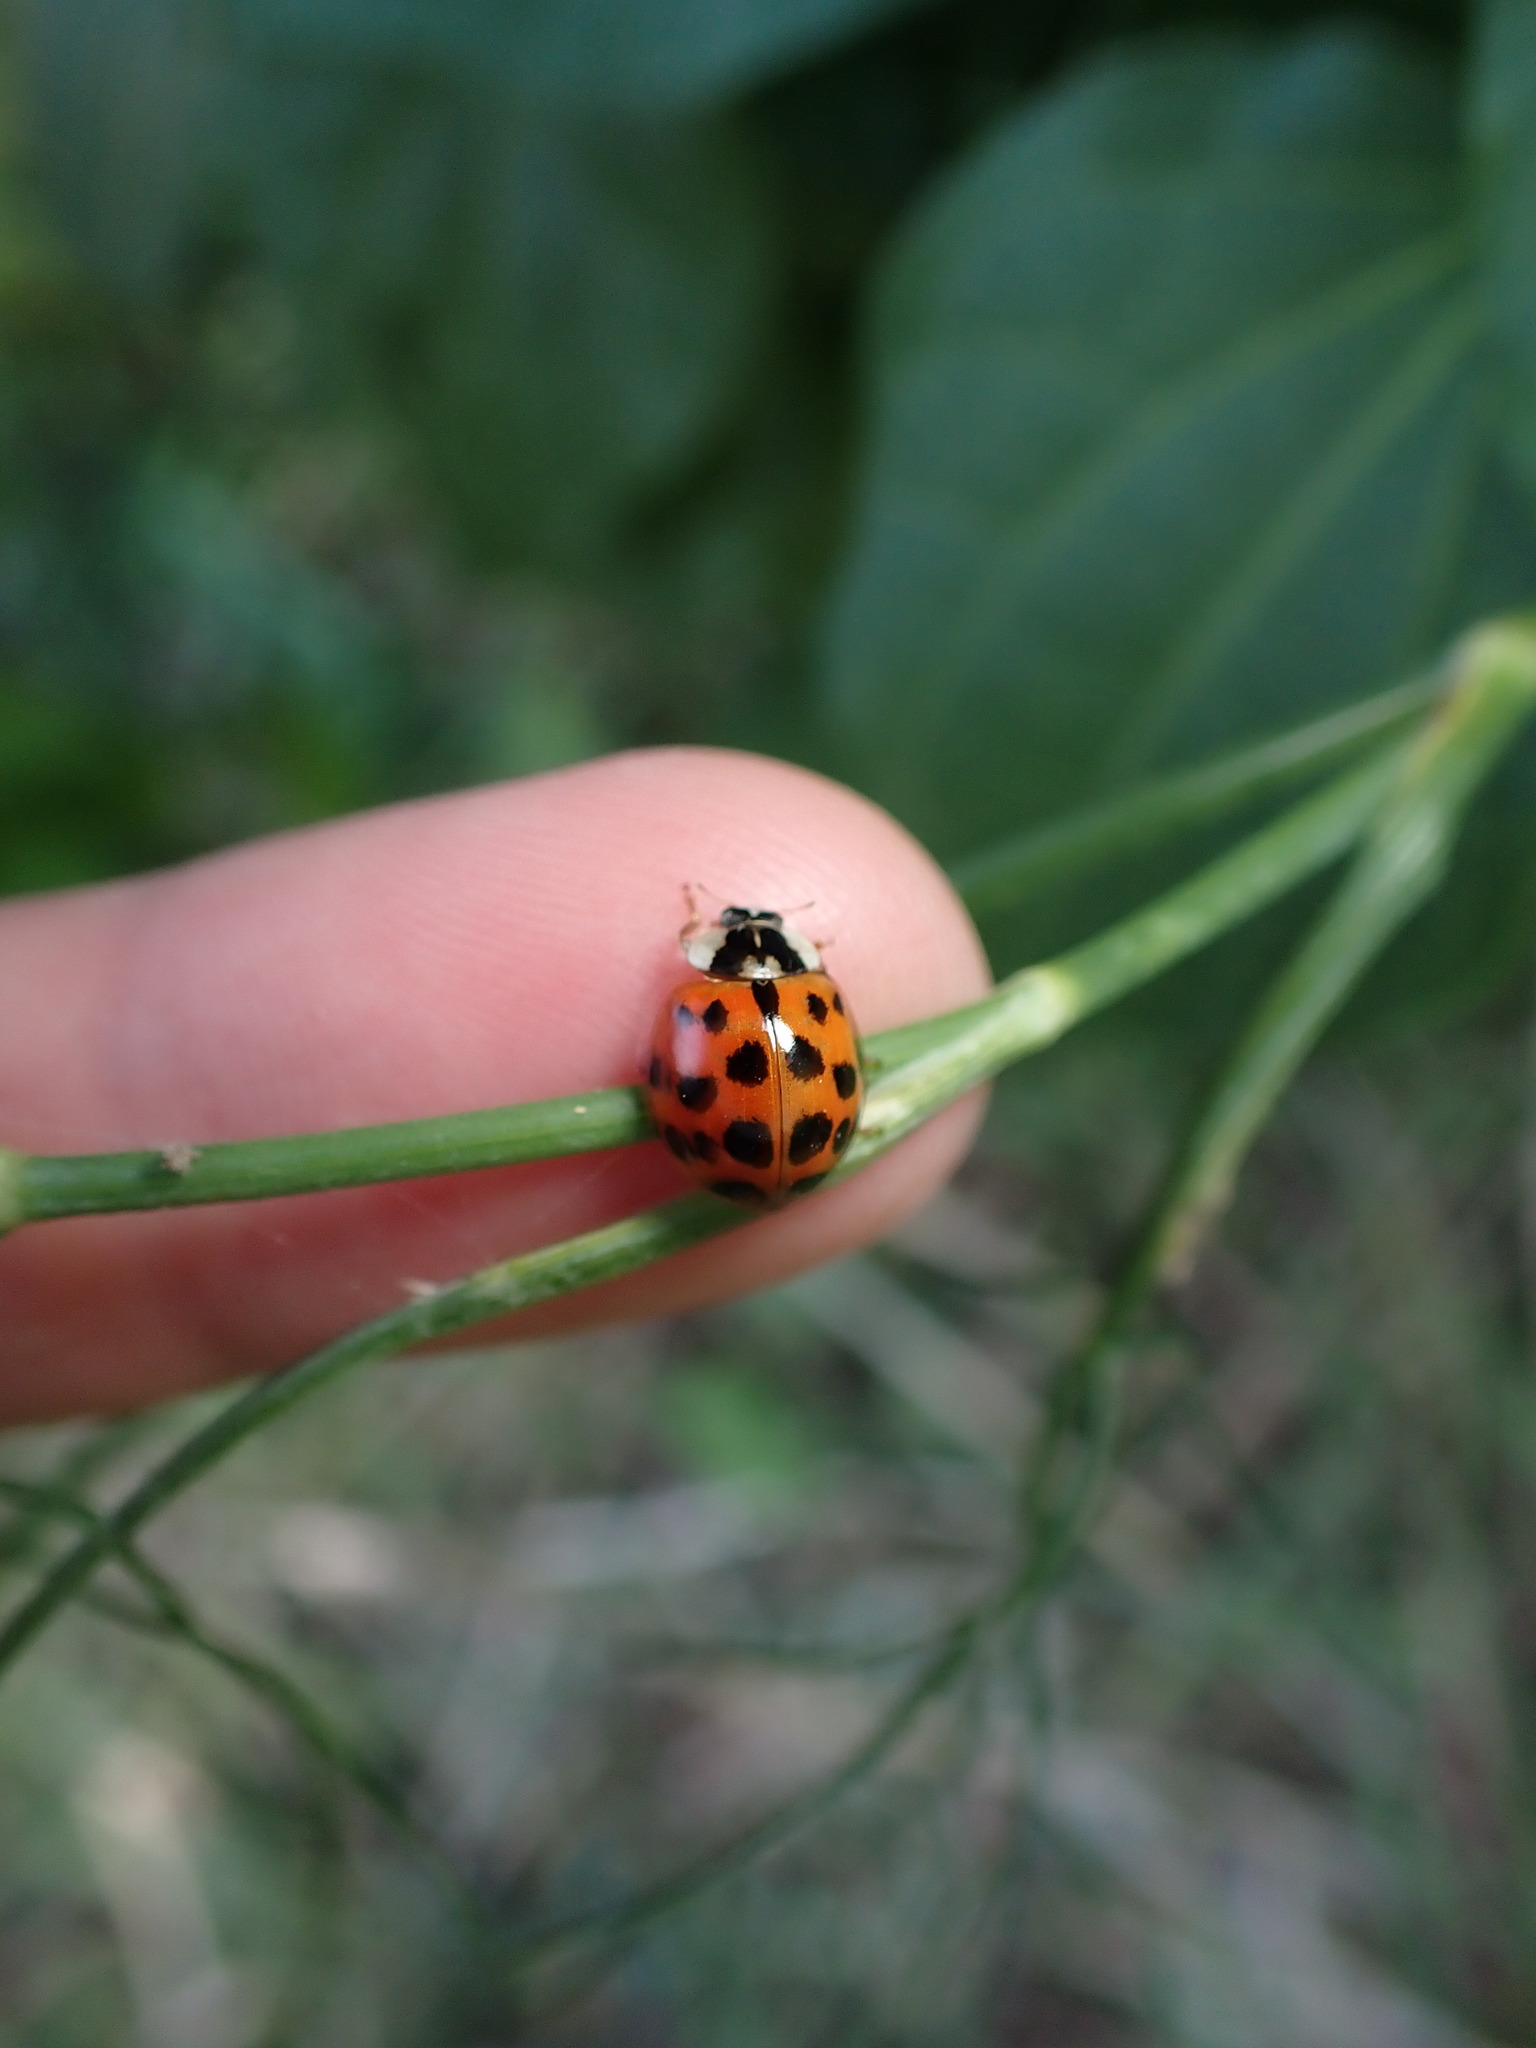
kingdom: Animalia
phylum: Arthropoda
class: Insecta
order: Coleoptera
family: Coccinellidae
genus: Harmonia
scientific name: Harmonia axyridis
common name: Harlequin ladybird
